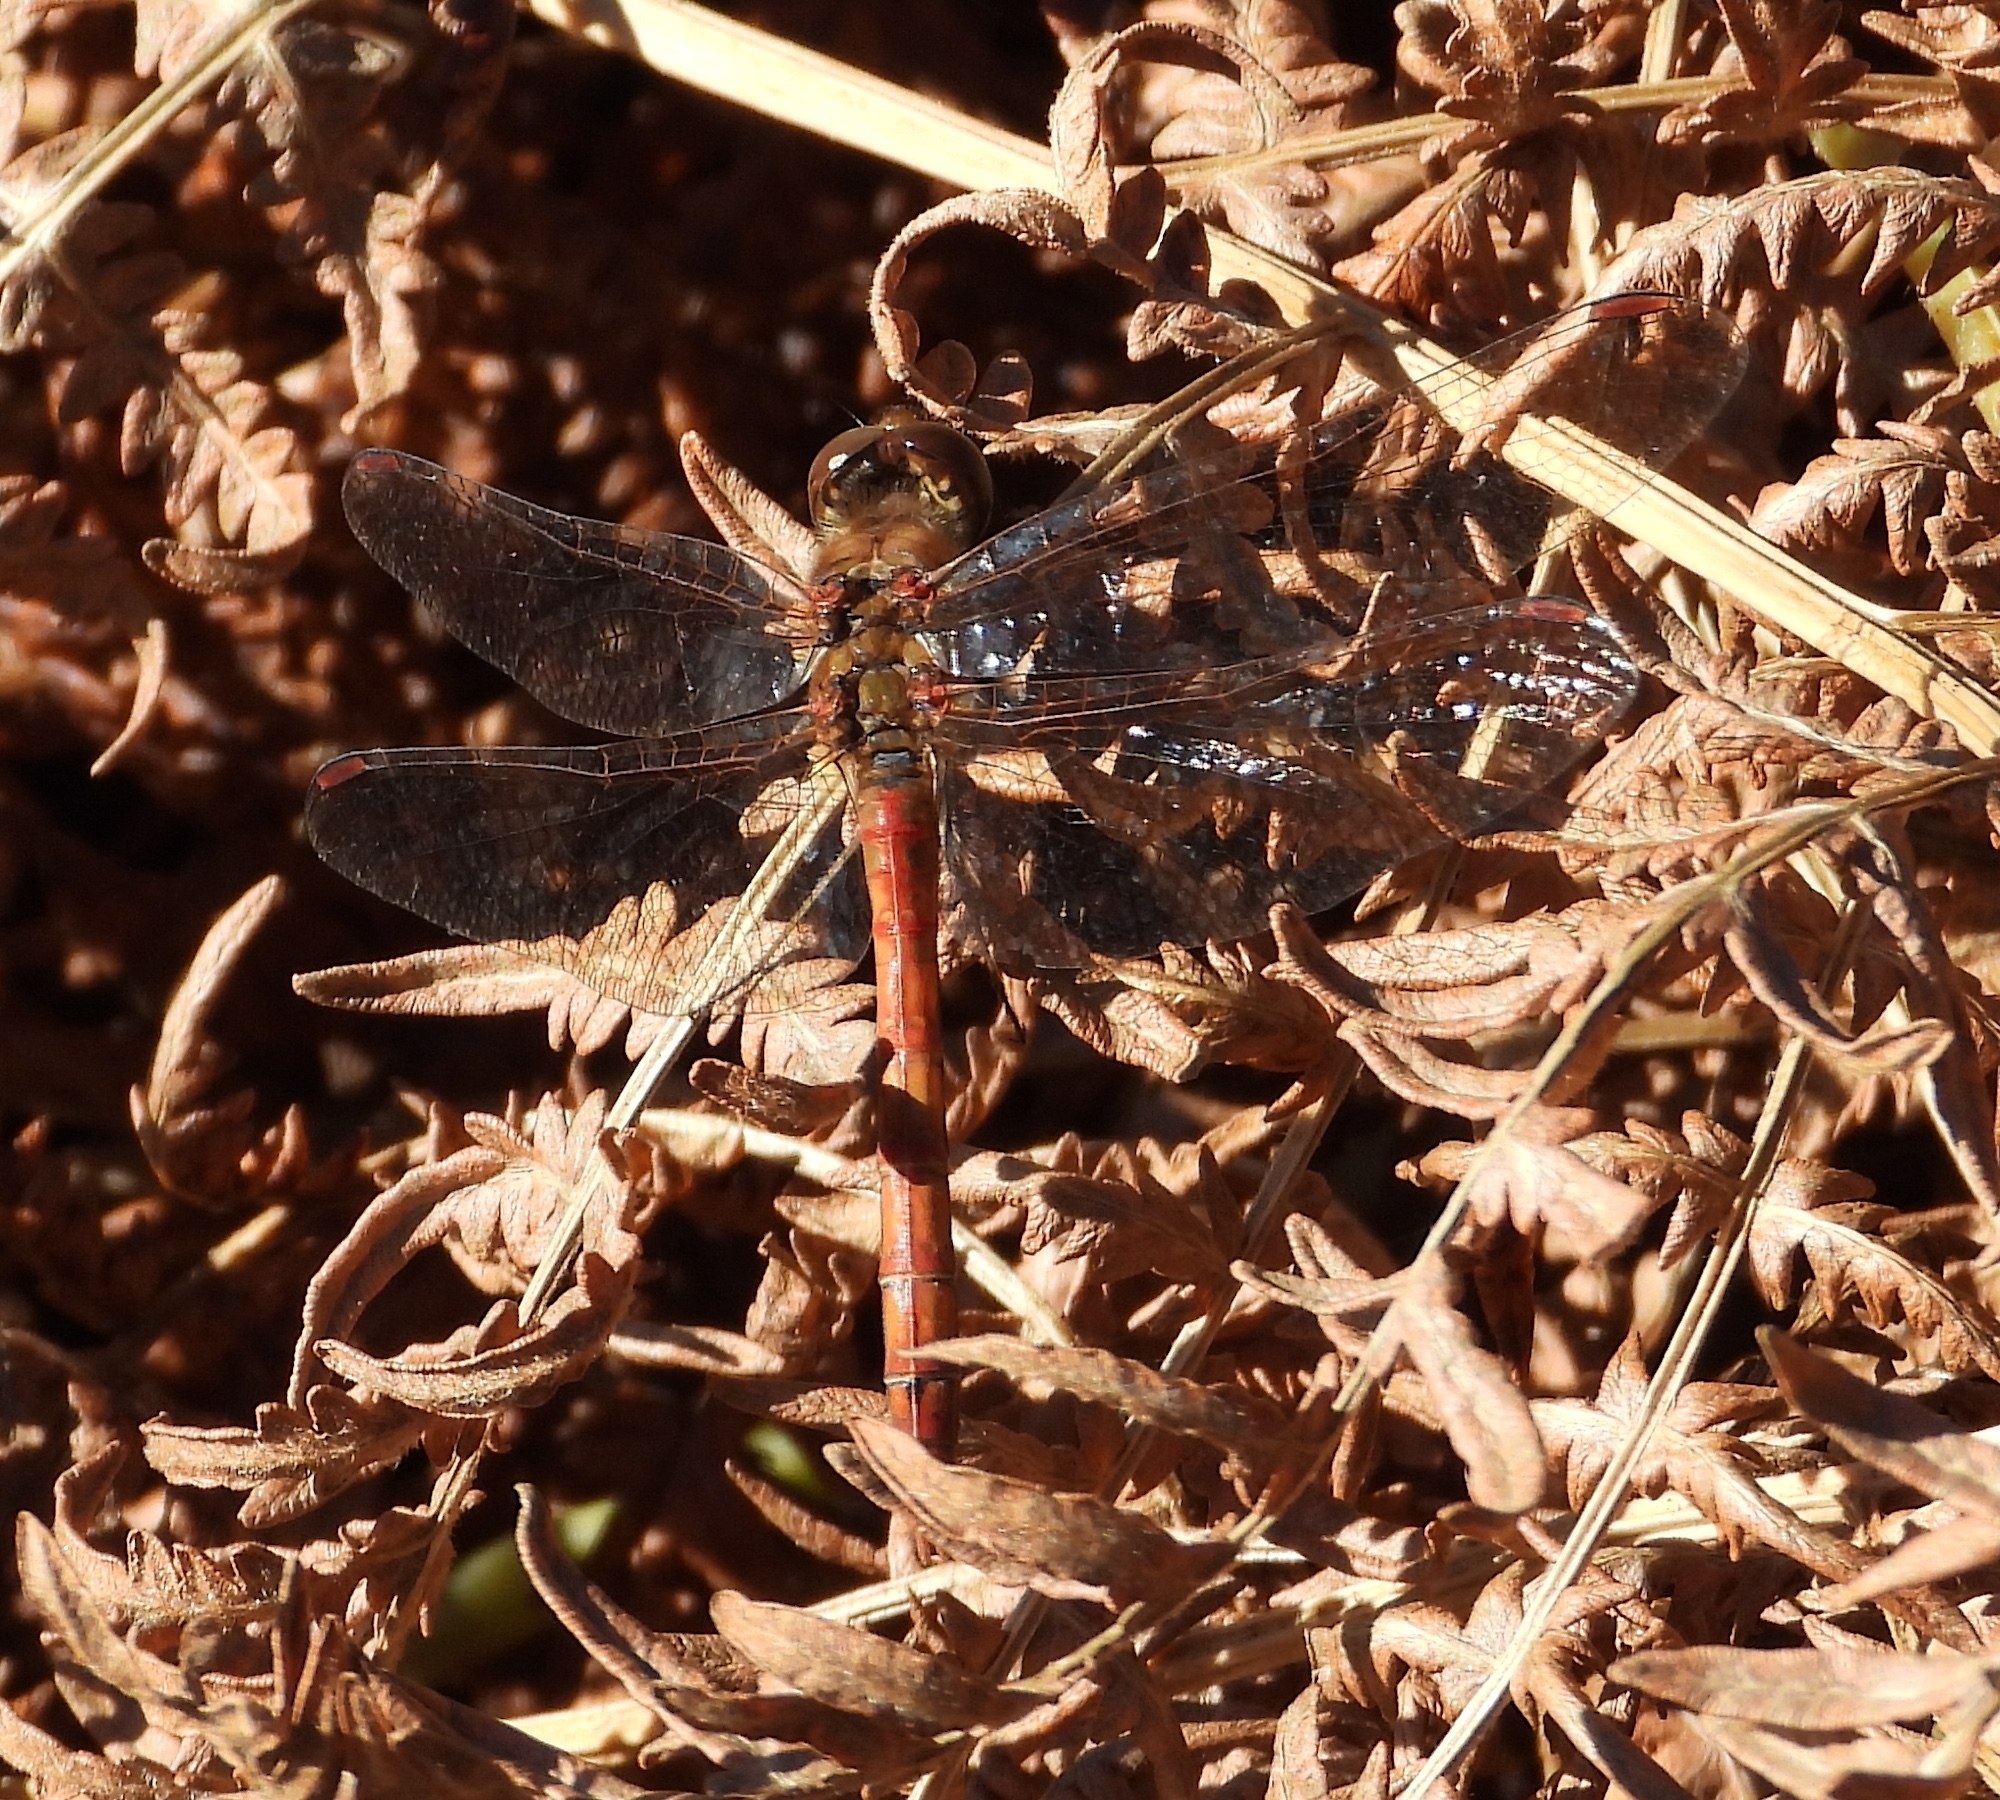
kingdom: Animalia
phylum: Arthropoda
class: Insecta
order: Odonata
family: Libellulidae
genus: Sympetrum
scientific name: Sympetrum striolatum
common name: Common darter
